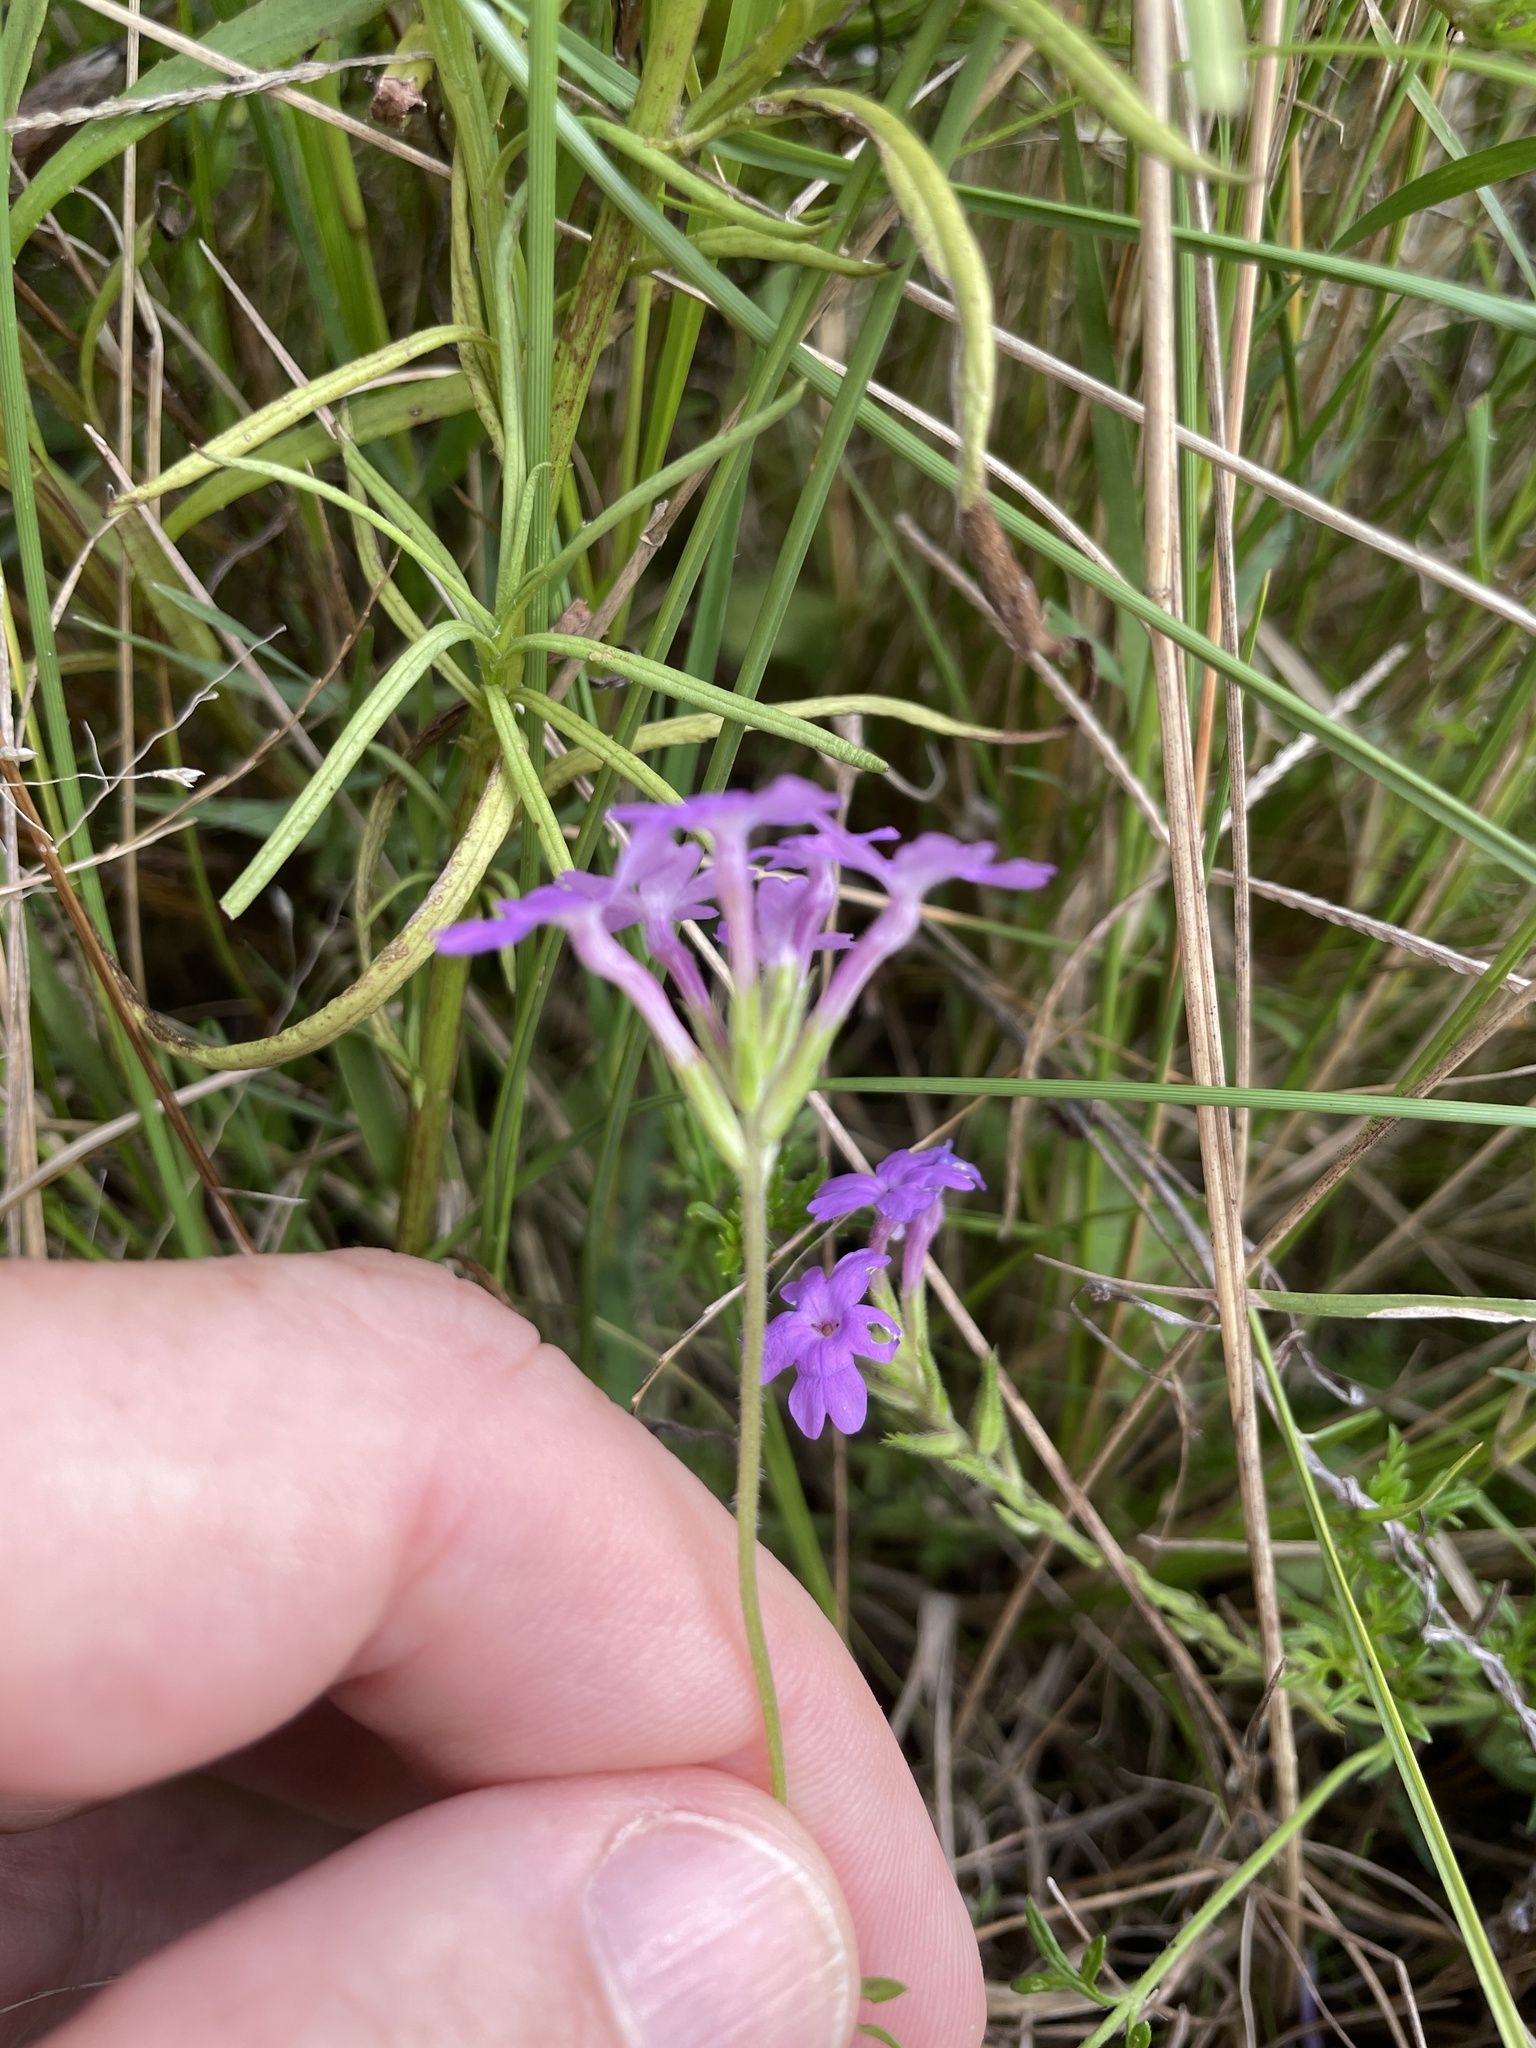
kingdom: Plantae
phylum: Tracheophyta
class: Magnoliopsida
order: Lamiales
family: Verbenaceae
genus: Verbena
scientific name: Verbena selloi
